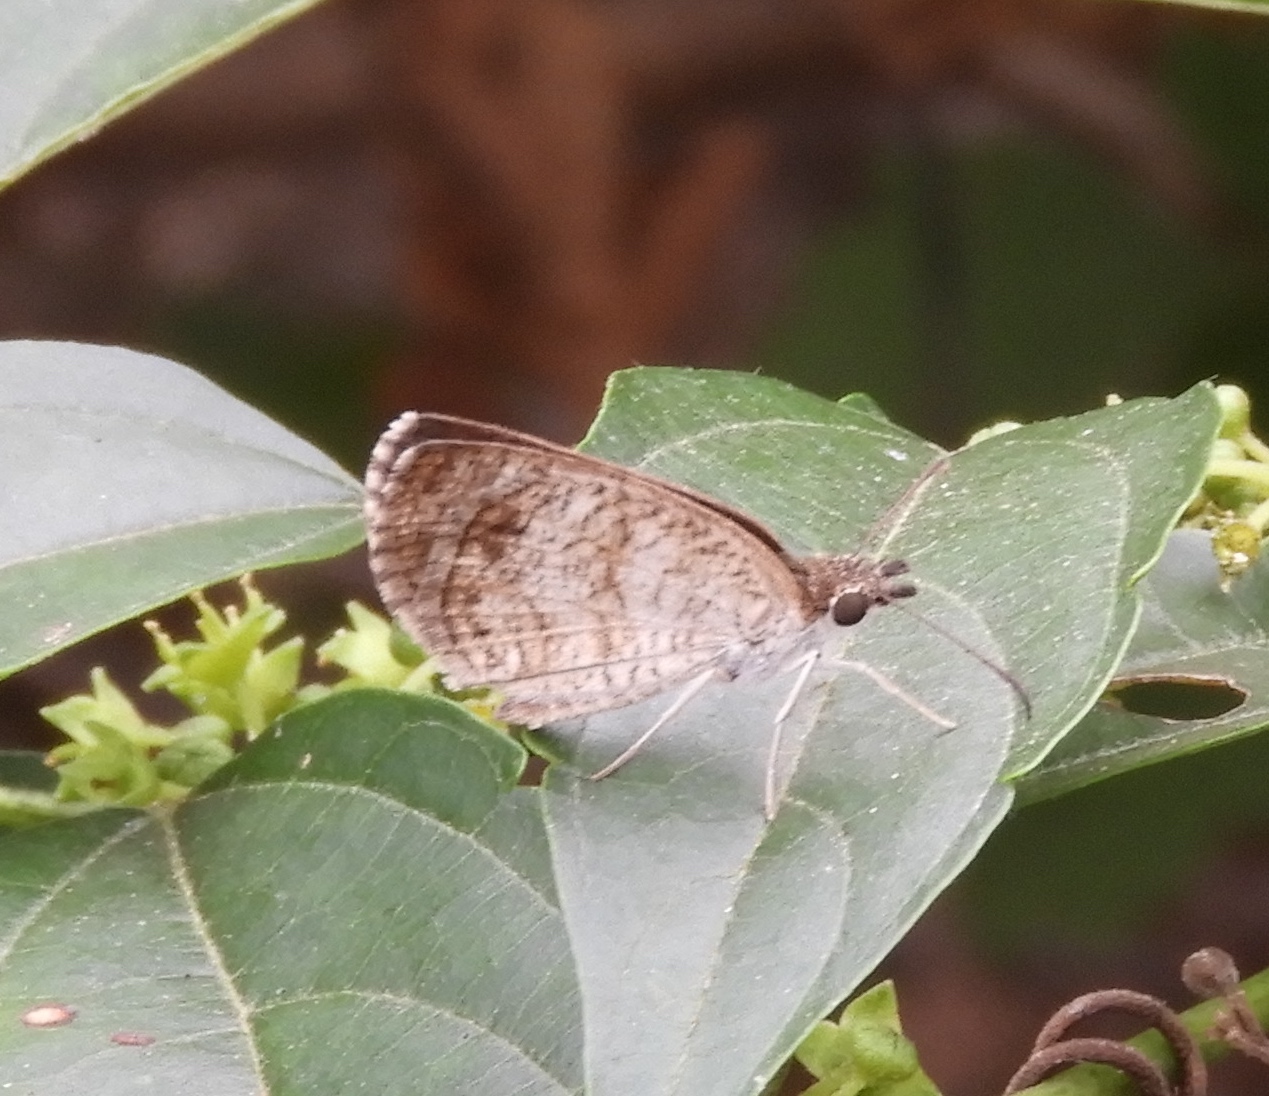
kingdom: Animalia
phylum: Arthropoda
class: Insecta
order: Lepidoptera
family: Hesperiidae
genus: Zopyrion
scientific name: Zopyrion sandace
